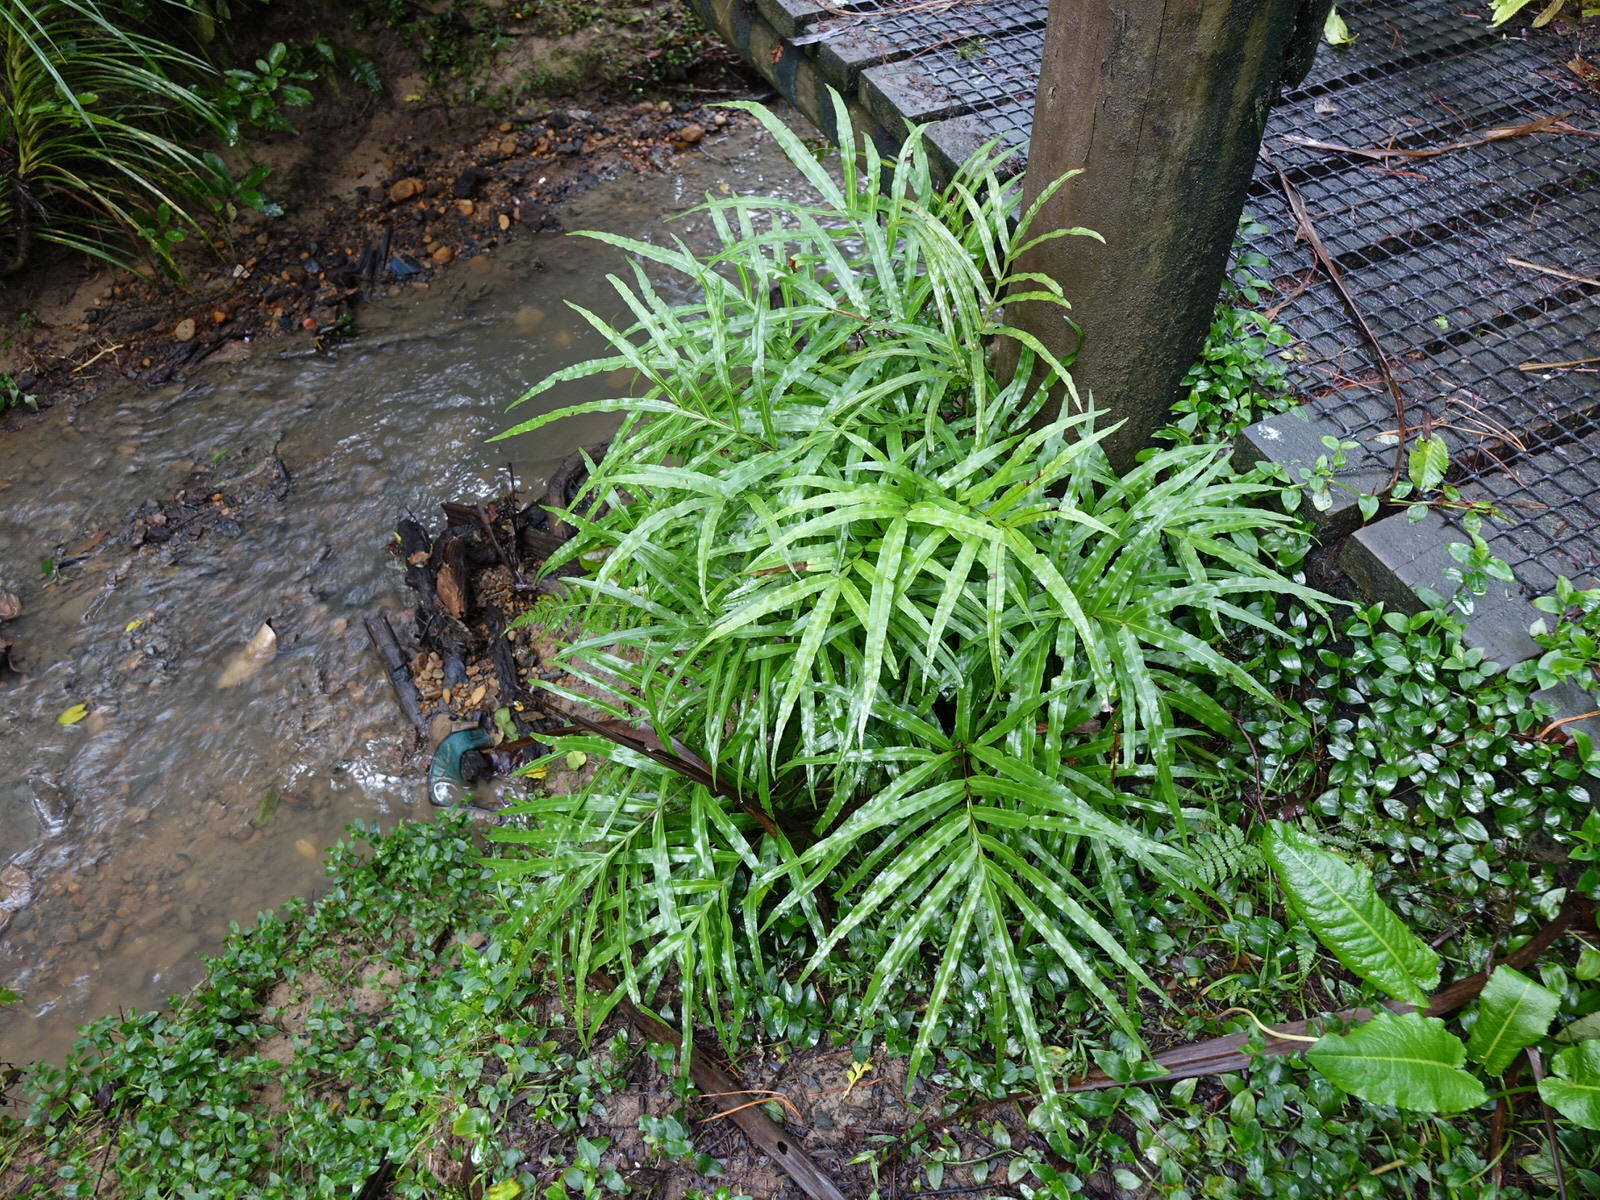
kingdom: Plantae
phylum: Tracheophyta
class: Polypodiopsida
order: Polypodiales
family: Pteridaceae
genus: Pteris
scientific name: Pteris cretica
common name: Ribbon fern
